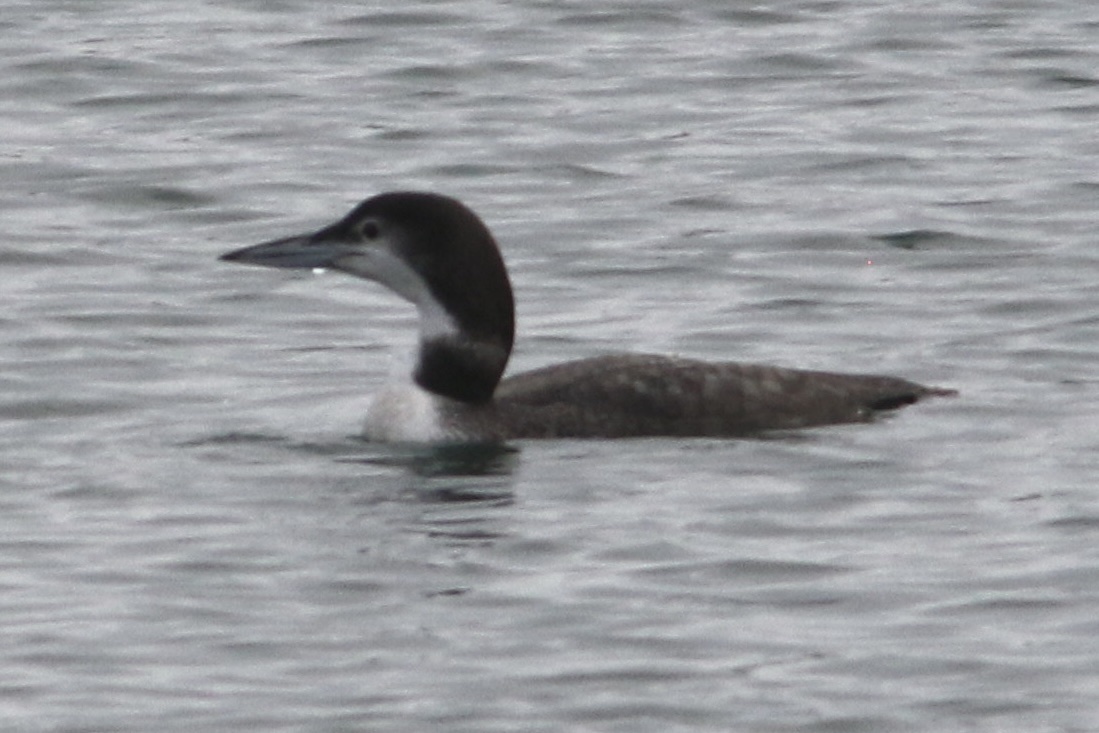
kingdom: Animalia
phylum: Chordata
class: Aves
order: Gaviiformes
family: Gaviidae
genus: Gavia
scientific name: Gavia immer
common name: Common loon
